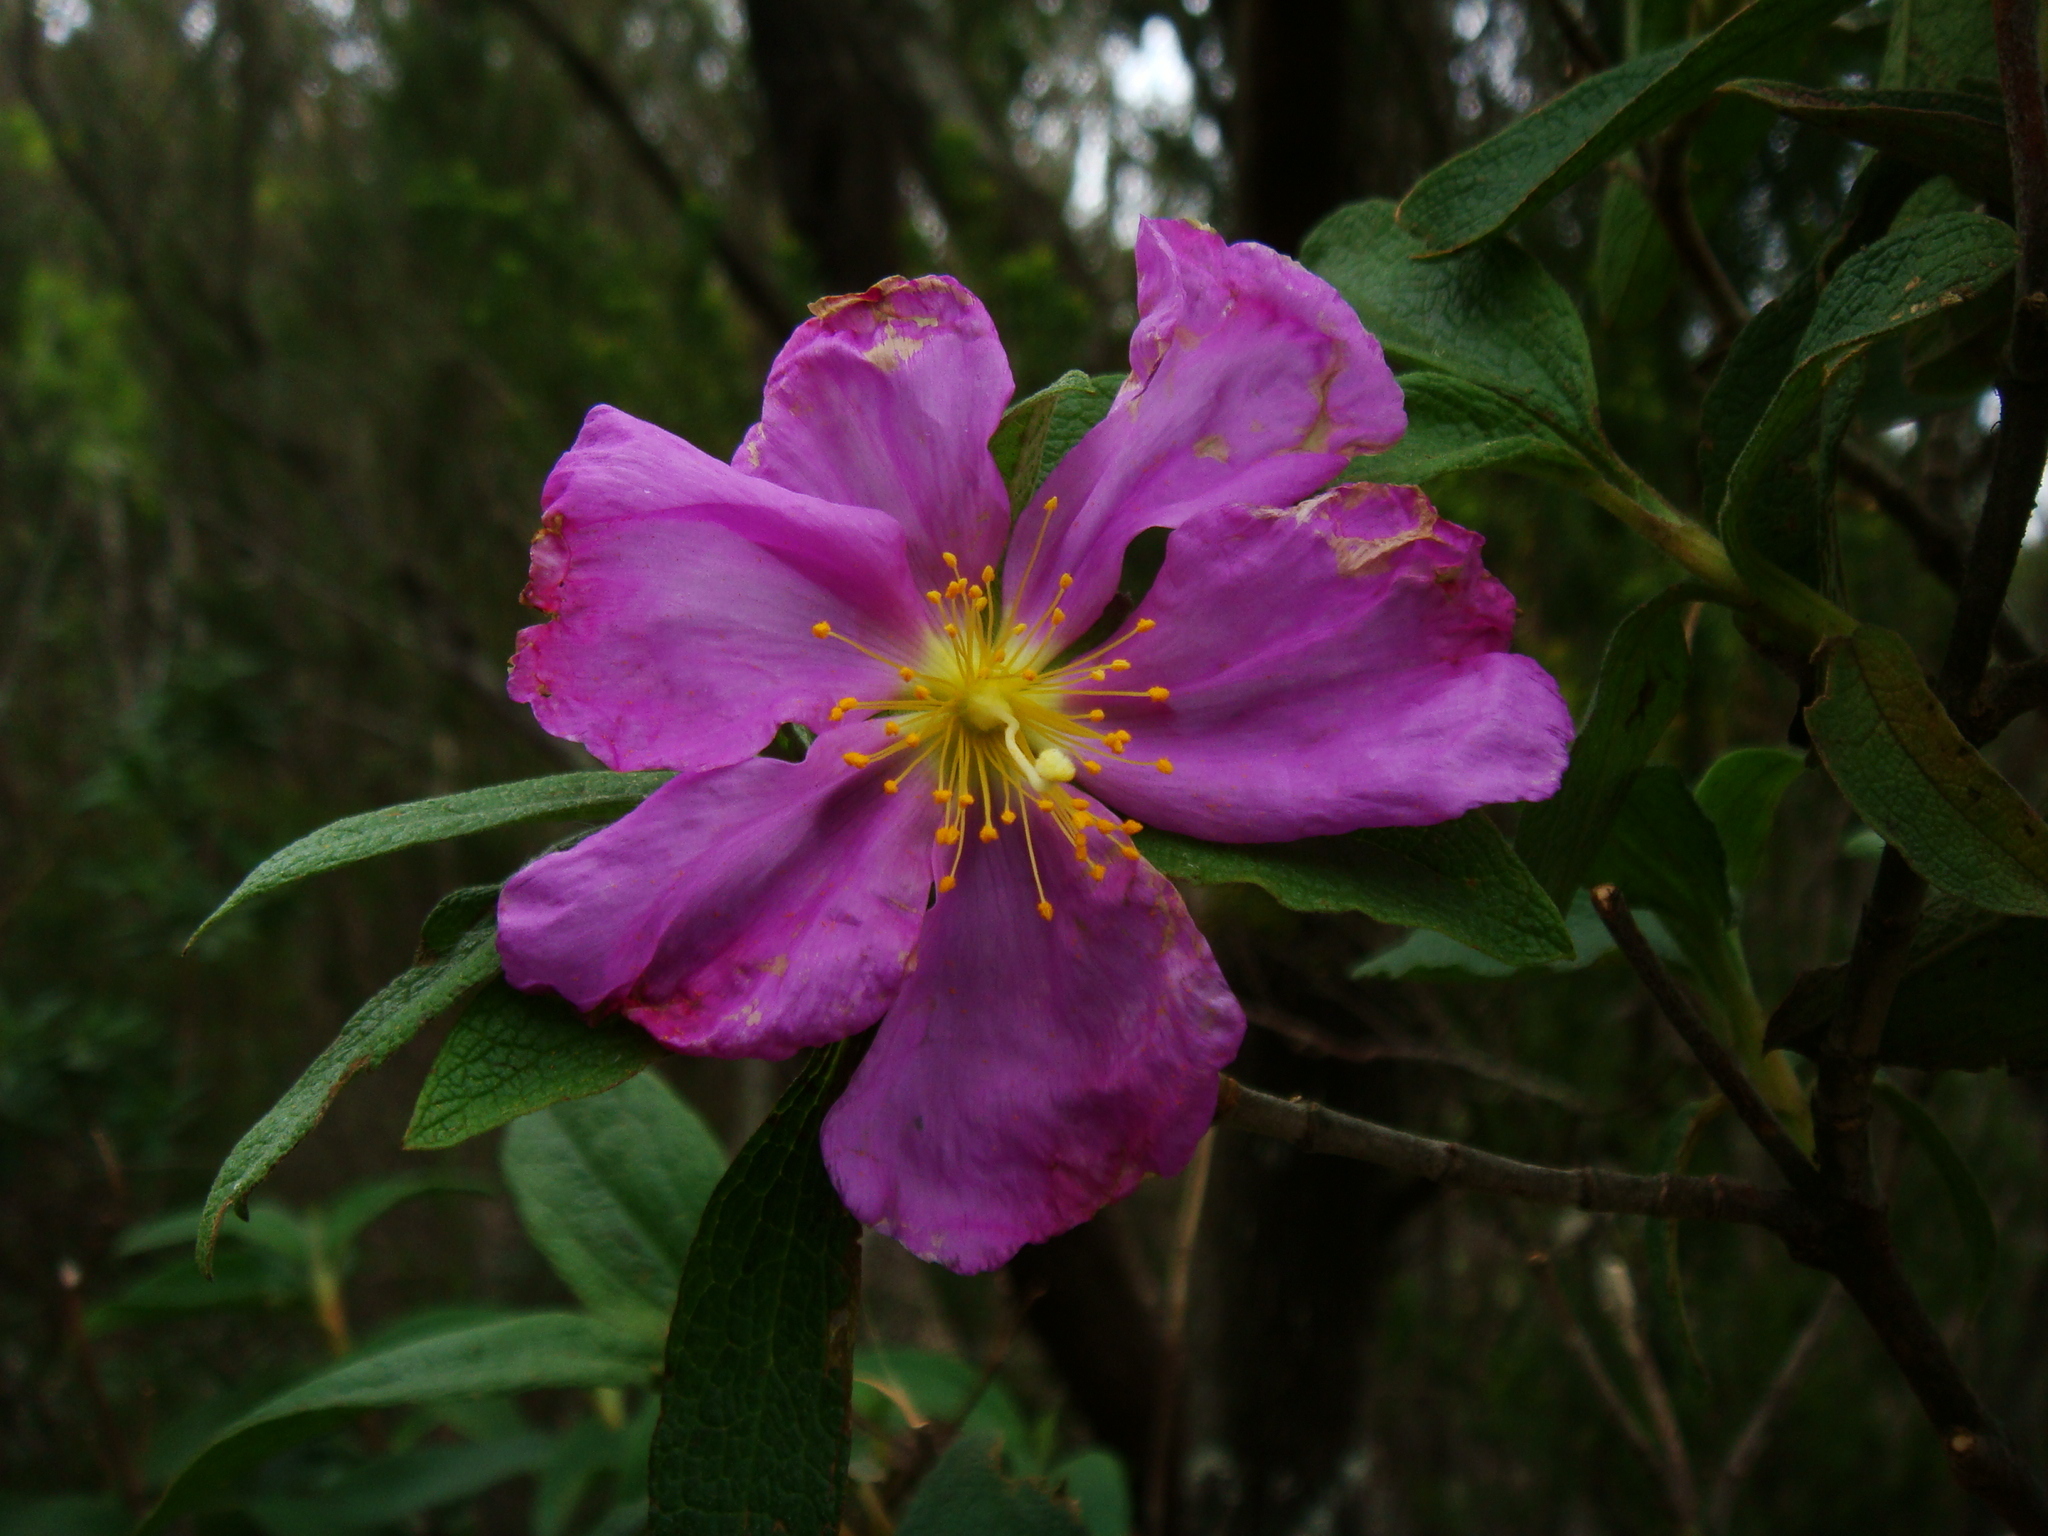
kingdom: Plantae
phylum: Tracheophyta
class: Magnoliopsida
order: Malvales
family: Cistaceae
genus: Cistus
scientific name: Cistus symphytifolius
